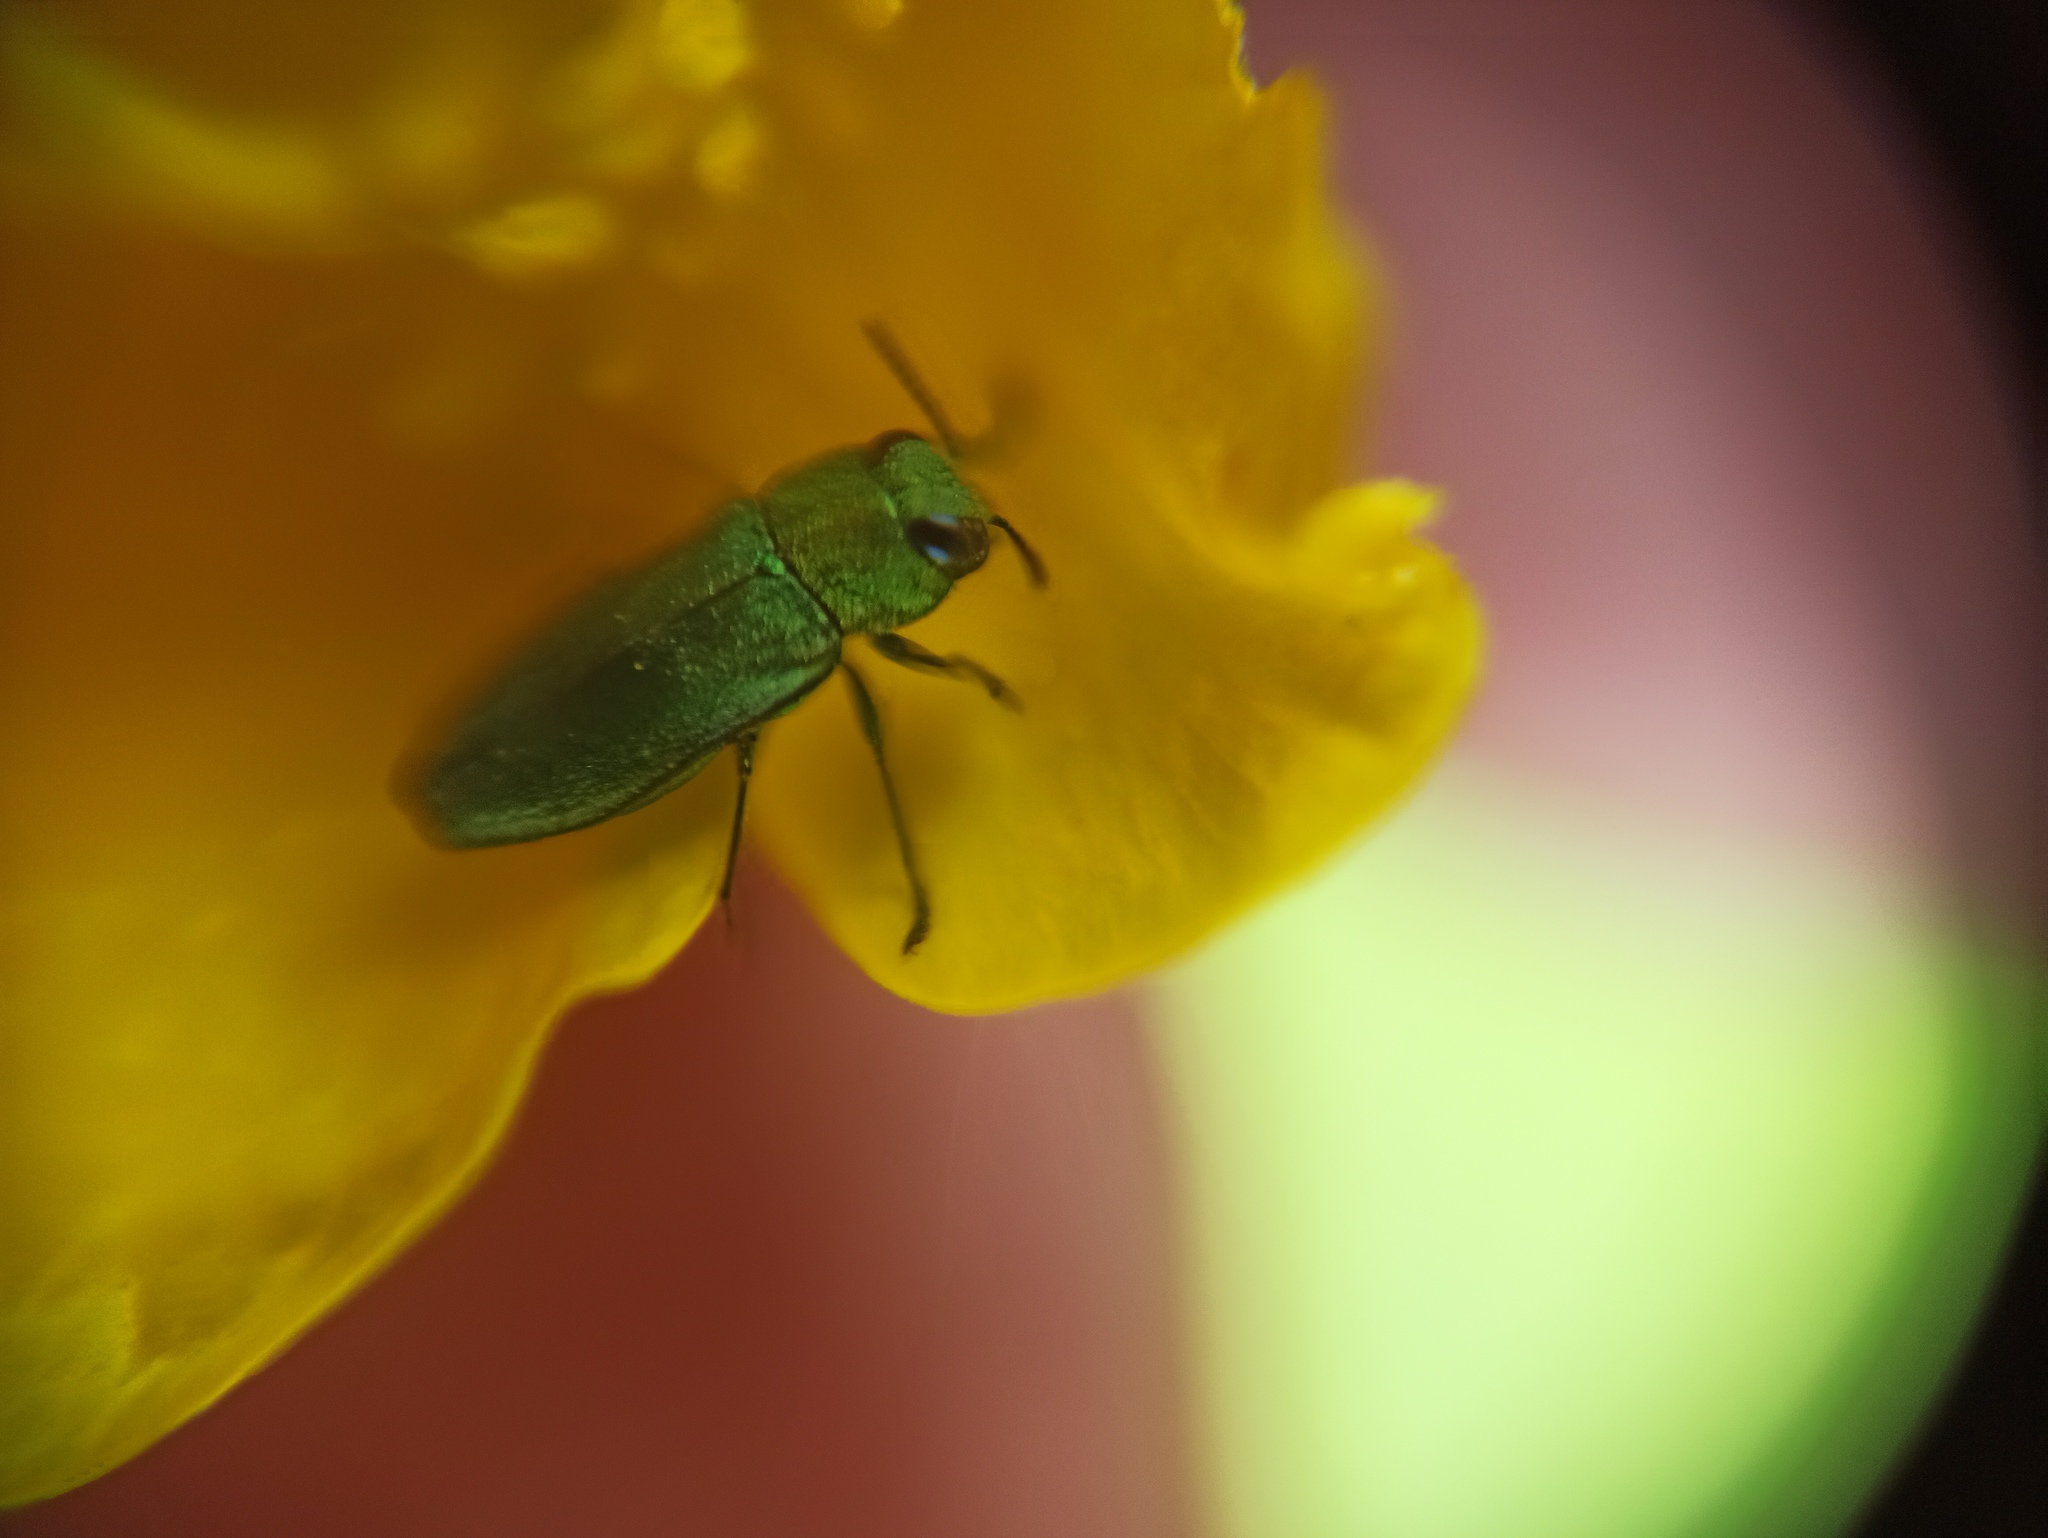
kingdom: Animalia
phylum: Arthropoda
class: Insecta
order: Coleoptera
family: Buprestidae
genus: Anthaxia
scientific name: Anthaxia nitidula
